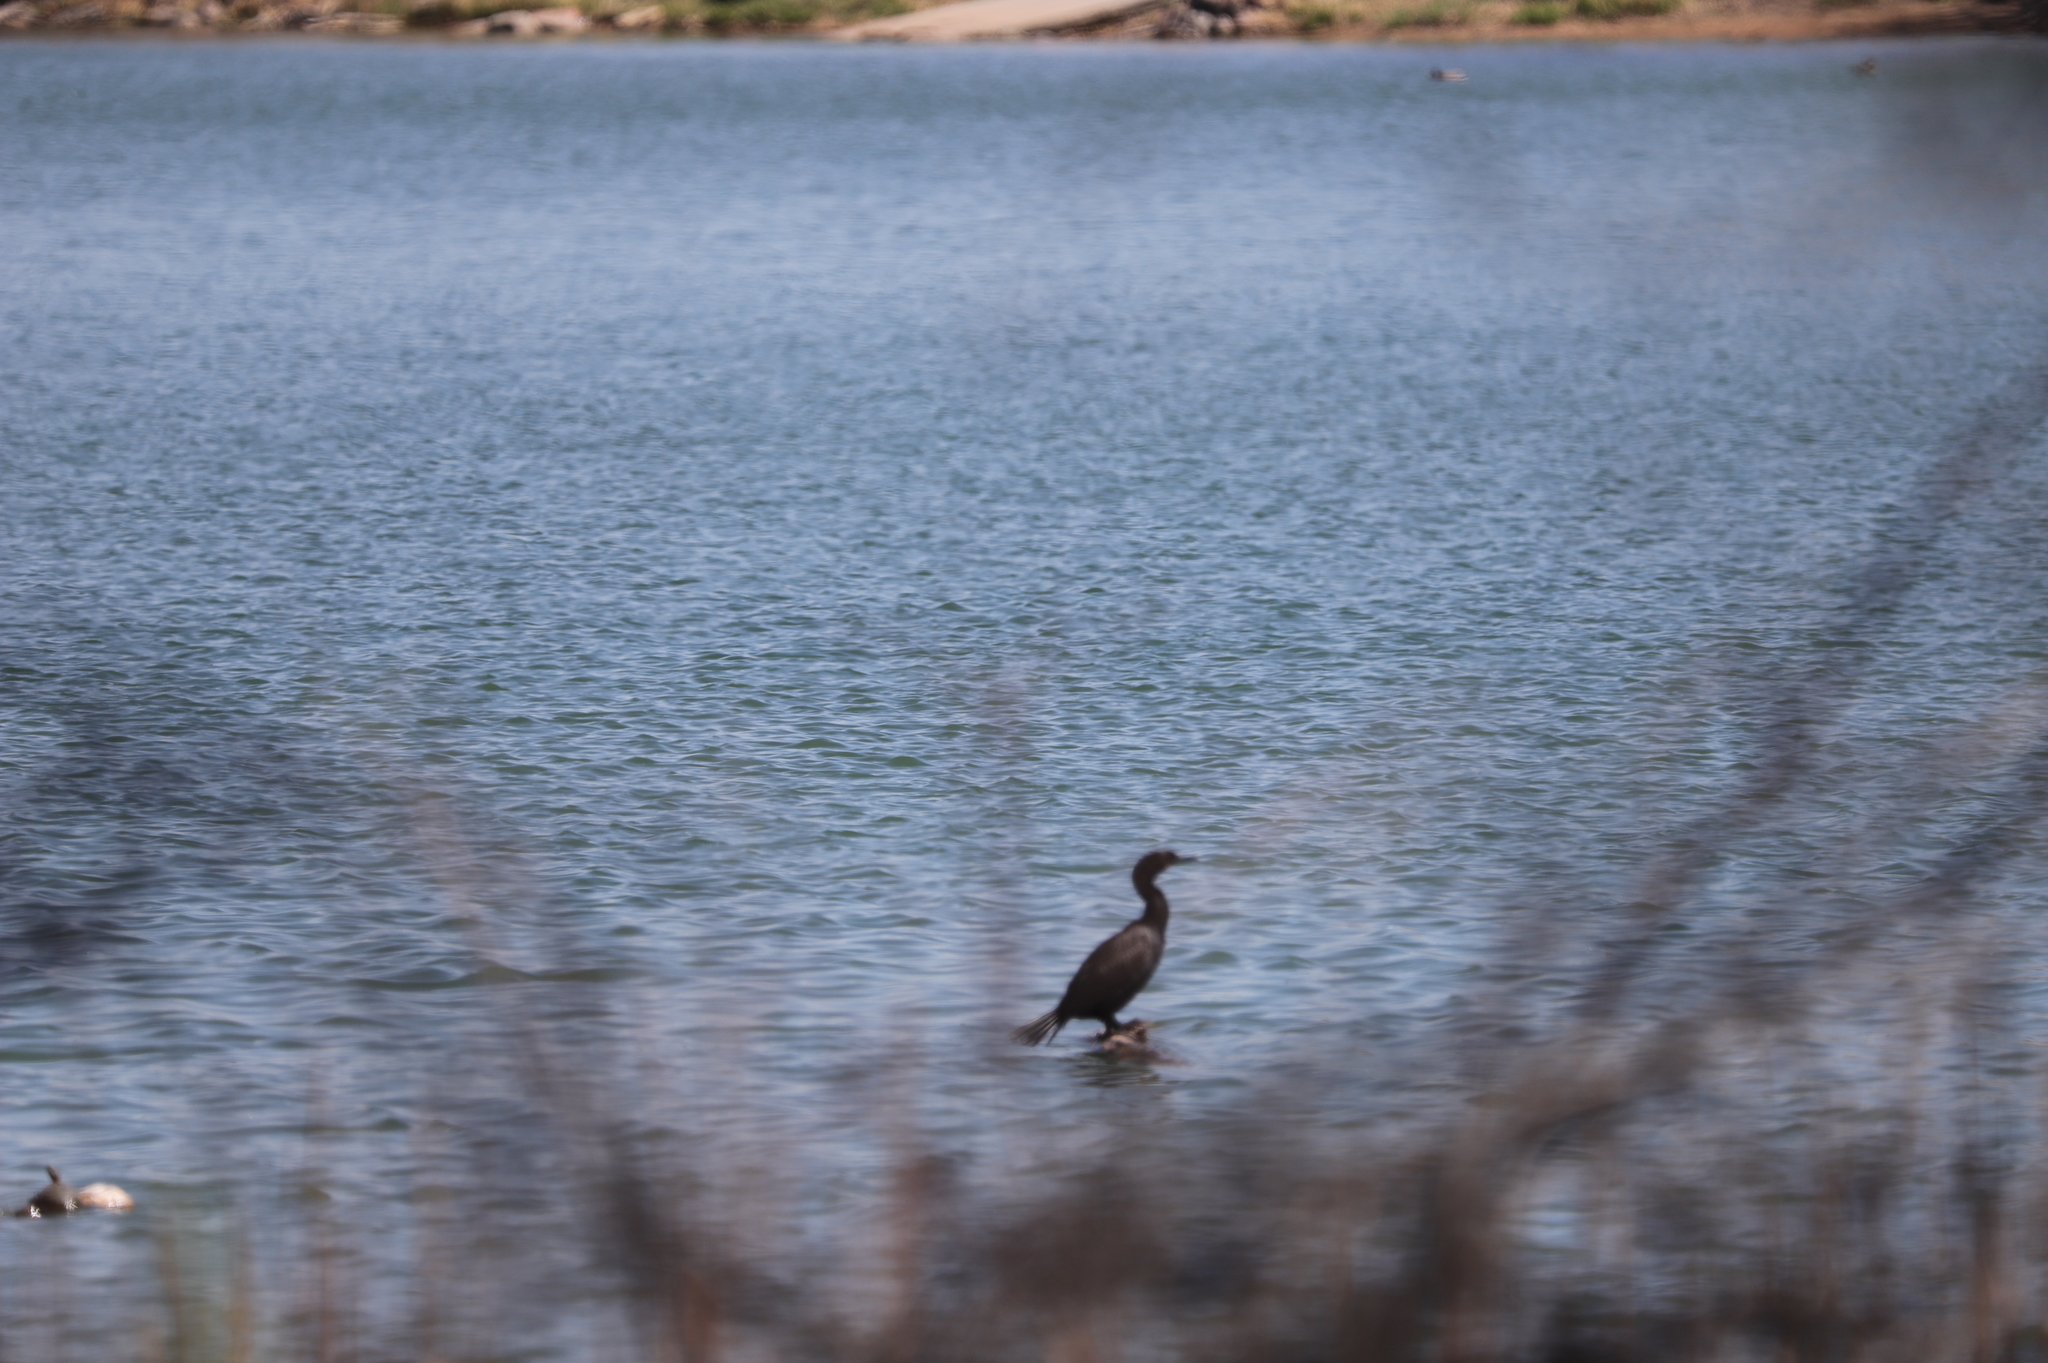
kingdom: Animalia
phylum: Chordata
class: Aves
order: Suliformes
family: Phalacrocoracidae
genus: Phalacrocorax
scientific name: Phalacrocorax auritus
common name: Double-crested cormorant
